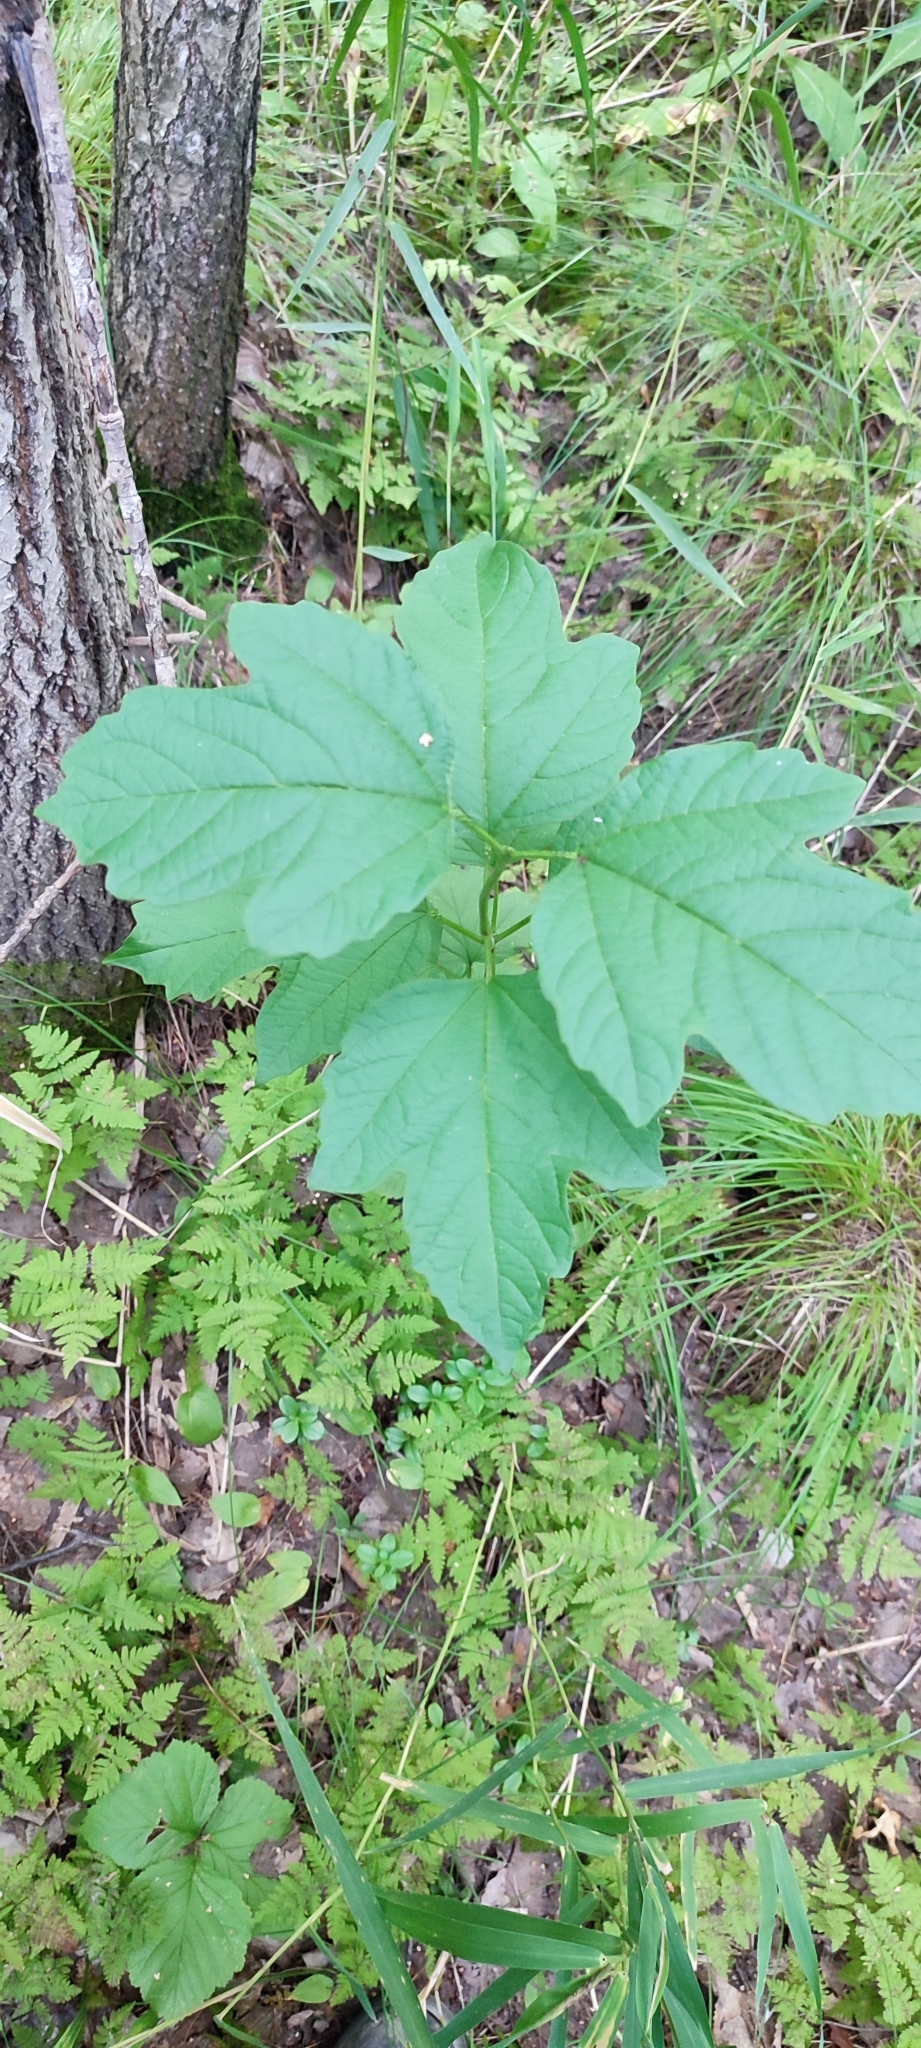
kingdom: Plantae
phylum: Tracheophyta
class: Magnoliopsida
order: Dipsacales
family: Viburnaceae
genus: Viburnum
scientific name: Viburnum opulus
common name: Guelder-rose
